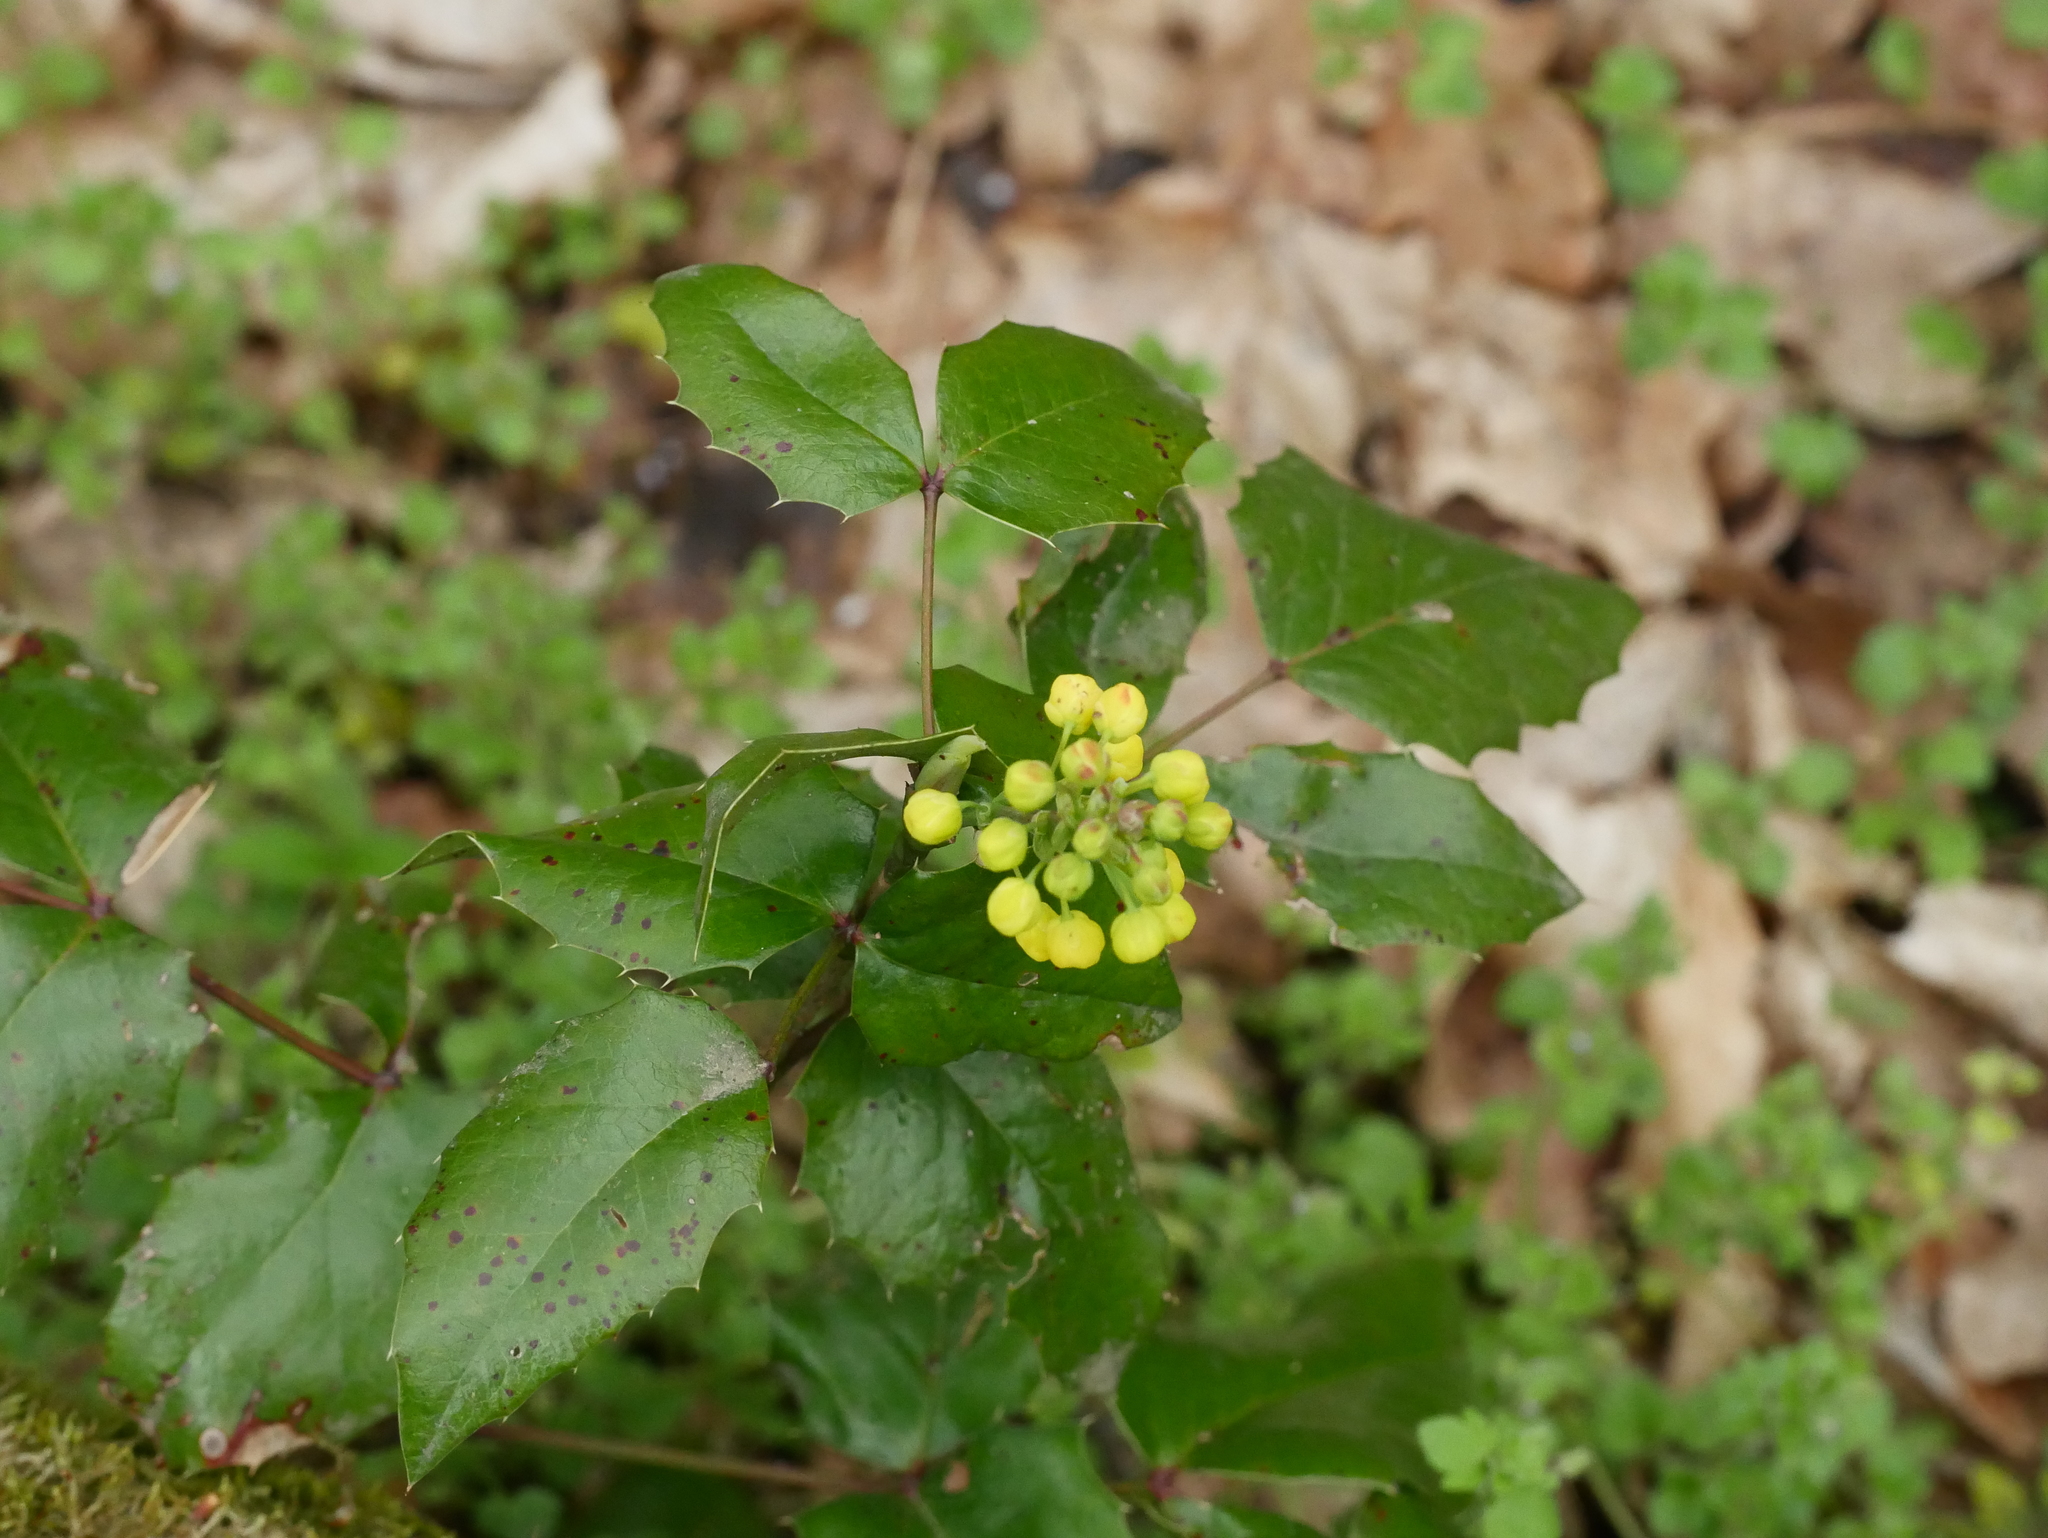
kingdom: Plantae
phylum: Tracheophyta
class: Magnoliopsida
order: Ranunculales
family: Berberidaceae
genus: Mahonia
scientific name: Mahonia aquifolium
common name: Oregon-grape
